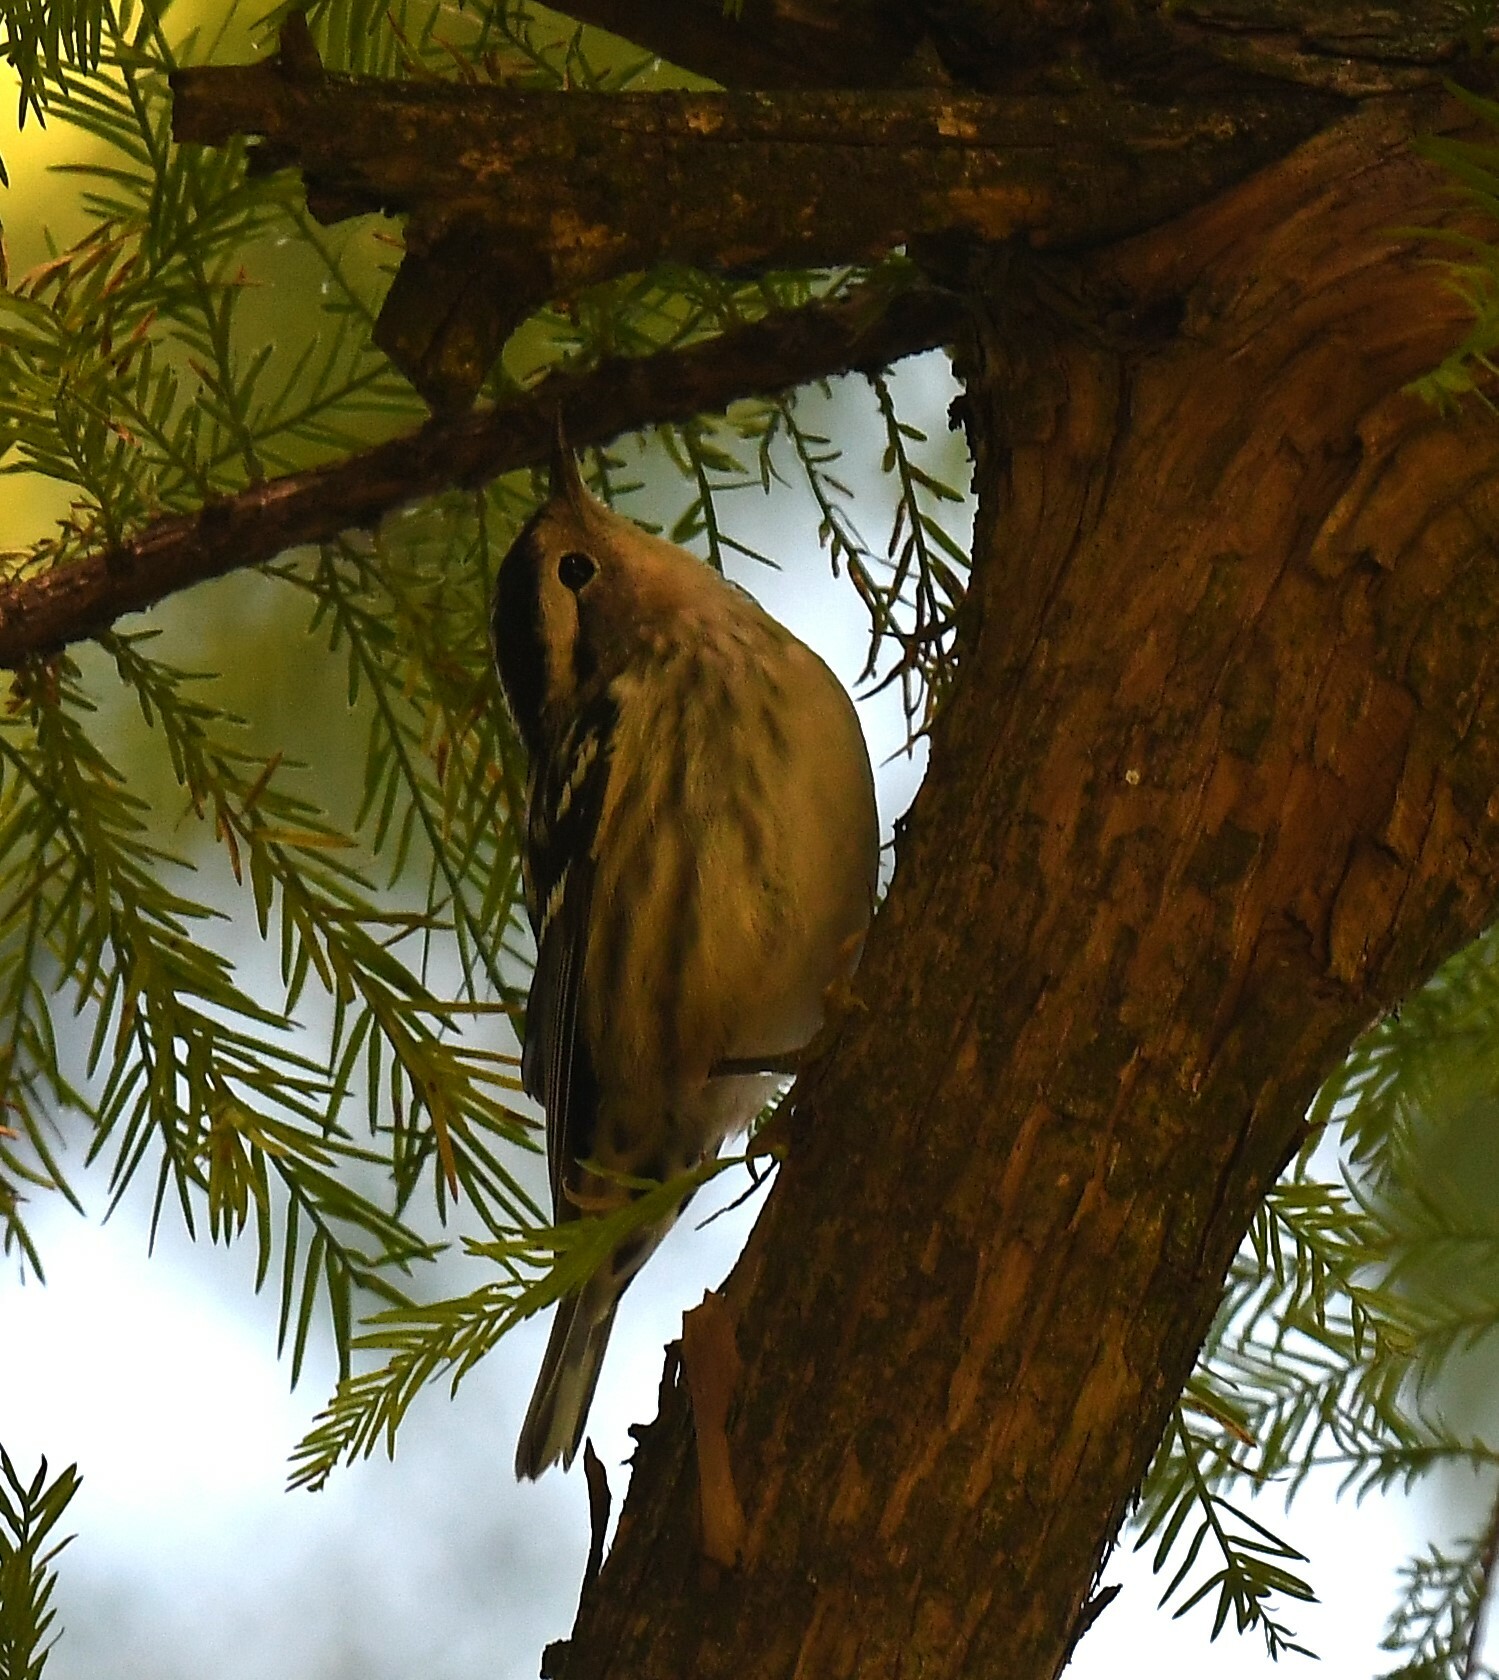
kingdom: Animalia
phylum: Chordata
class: Aves
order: Passeriformes
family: Parulidae
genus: Mniotilta
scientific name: Mniotilta varia
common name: Black-and-white warbler
